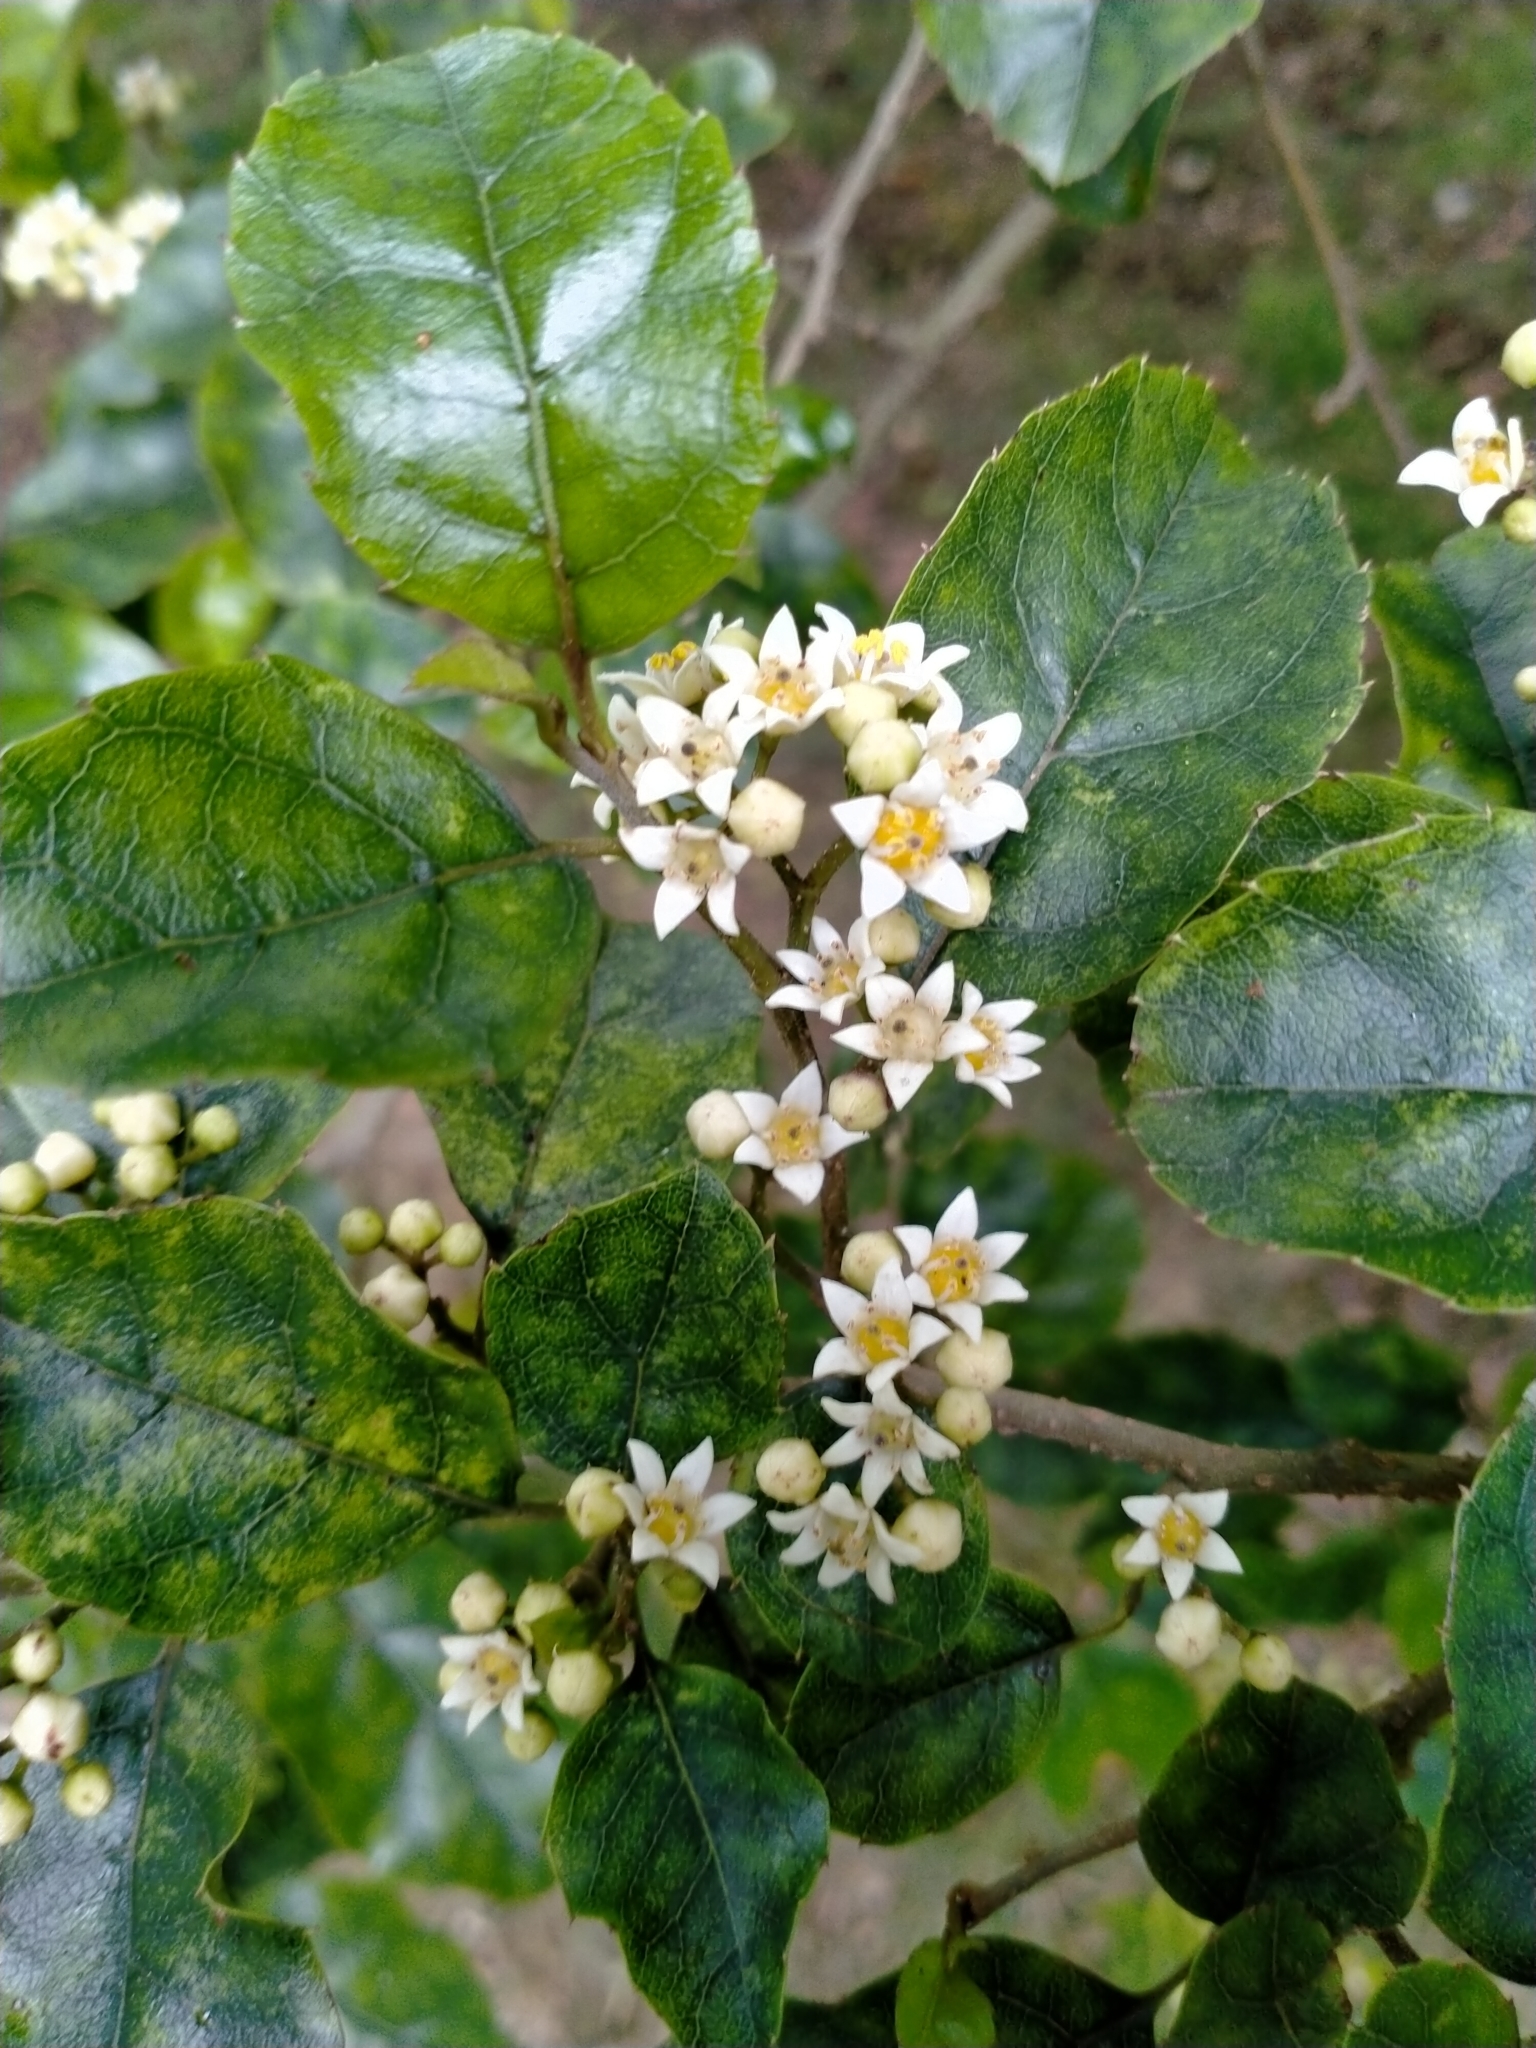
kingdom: Plantae
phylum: Tracheophyta
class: Magnoliopsida
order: Asterales
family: Rousseaceae
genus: Carpodetus
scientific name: Carpodetus serratus
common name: White mapau
